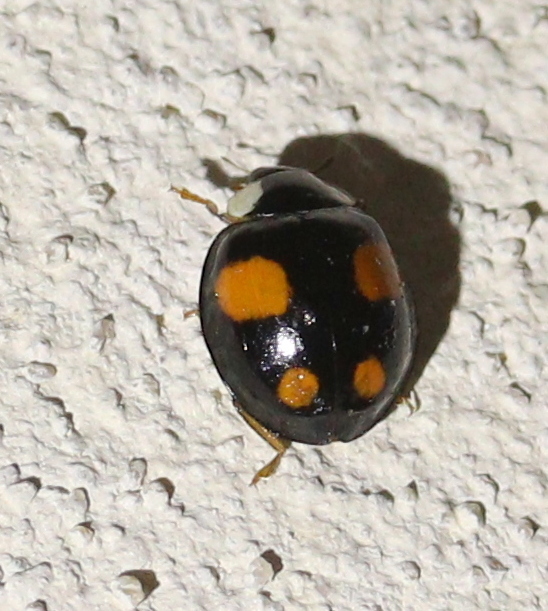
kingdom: Animalia
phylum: Arthropoda
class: Insecta
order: Coleoptera
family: Coccinellidae
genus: Harmonia
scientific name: Harmonia axyridis
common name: Harlequin ladybird
